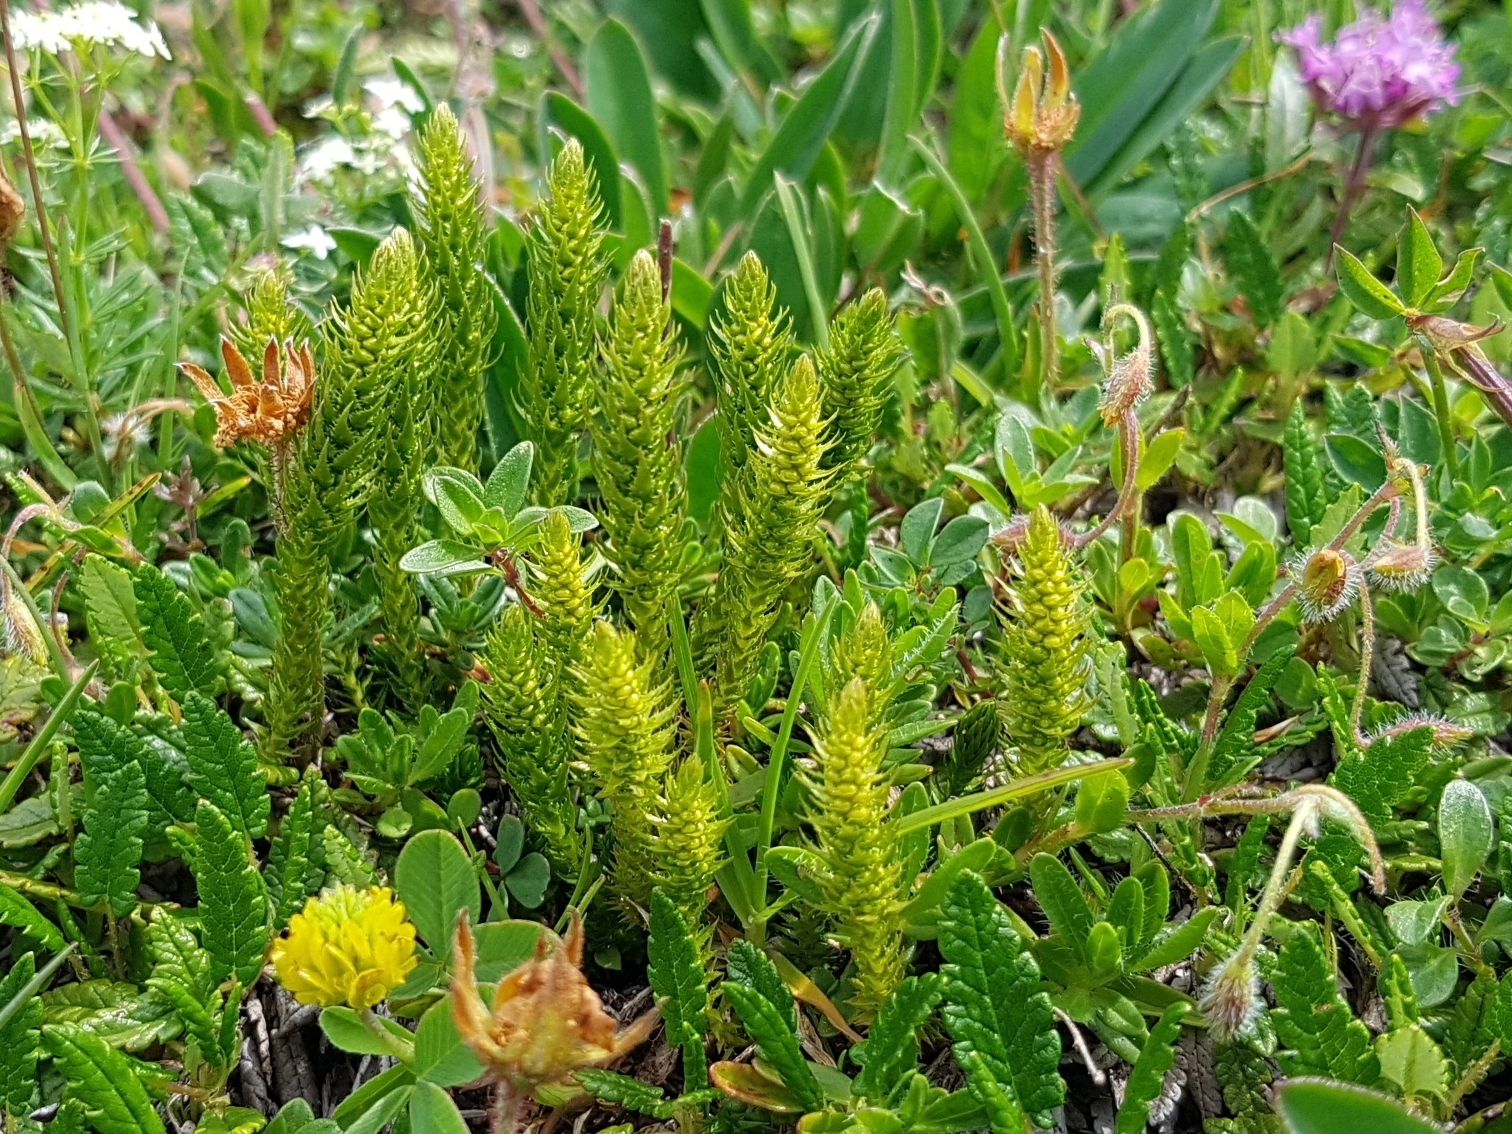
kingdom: Plantae
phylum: Tracheophyta
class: Lycopodiopsida
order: Selaginellales
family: Selaginellaceae
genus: Selaginella
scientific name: Selaginella selaginoides
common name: Prickly mountain-moss
